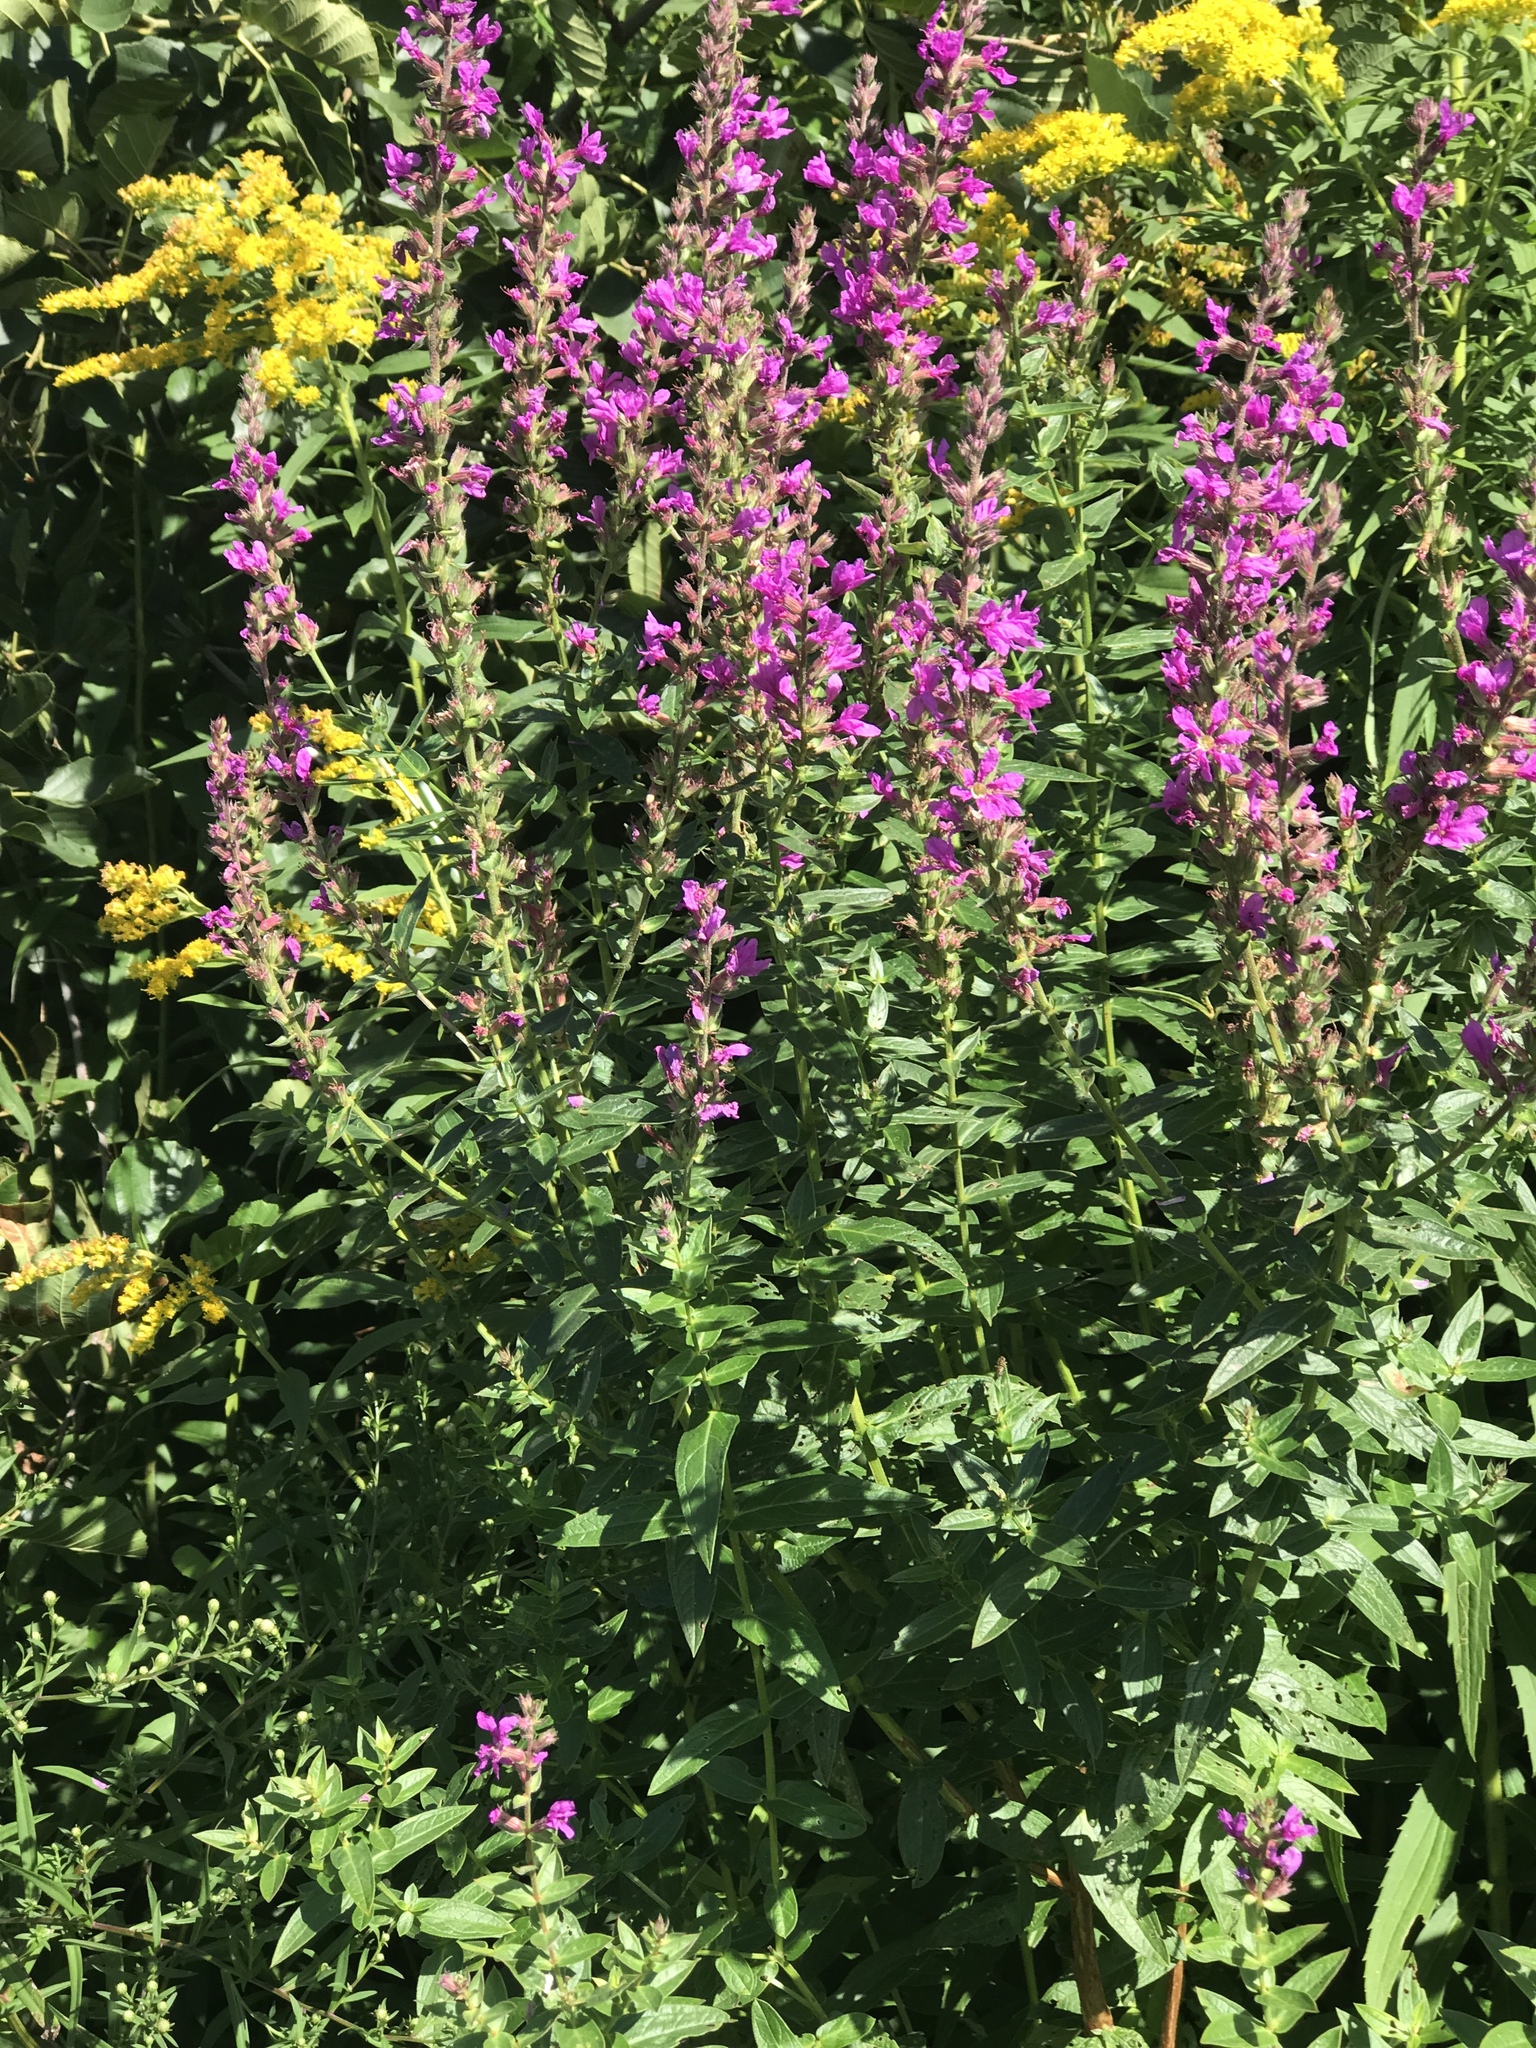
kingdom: Plantae
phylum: Tracheophyta
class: Magnoliopsida
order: Myrtales
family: Lythraceae
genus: Lythrum
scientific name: Lythrum salicaria
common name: Purple loosestrife
